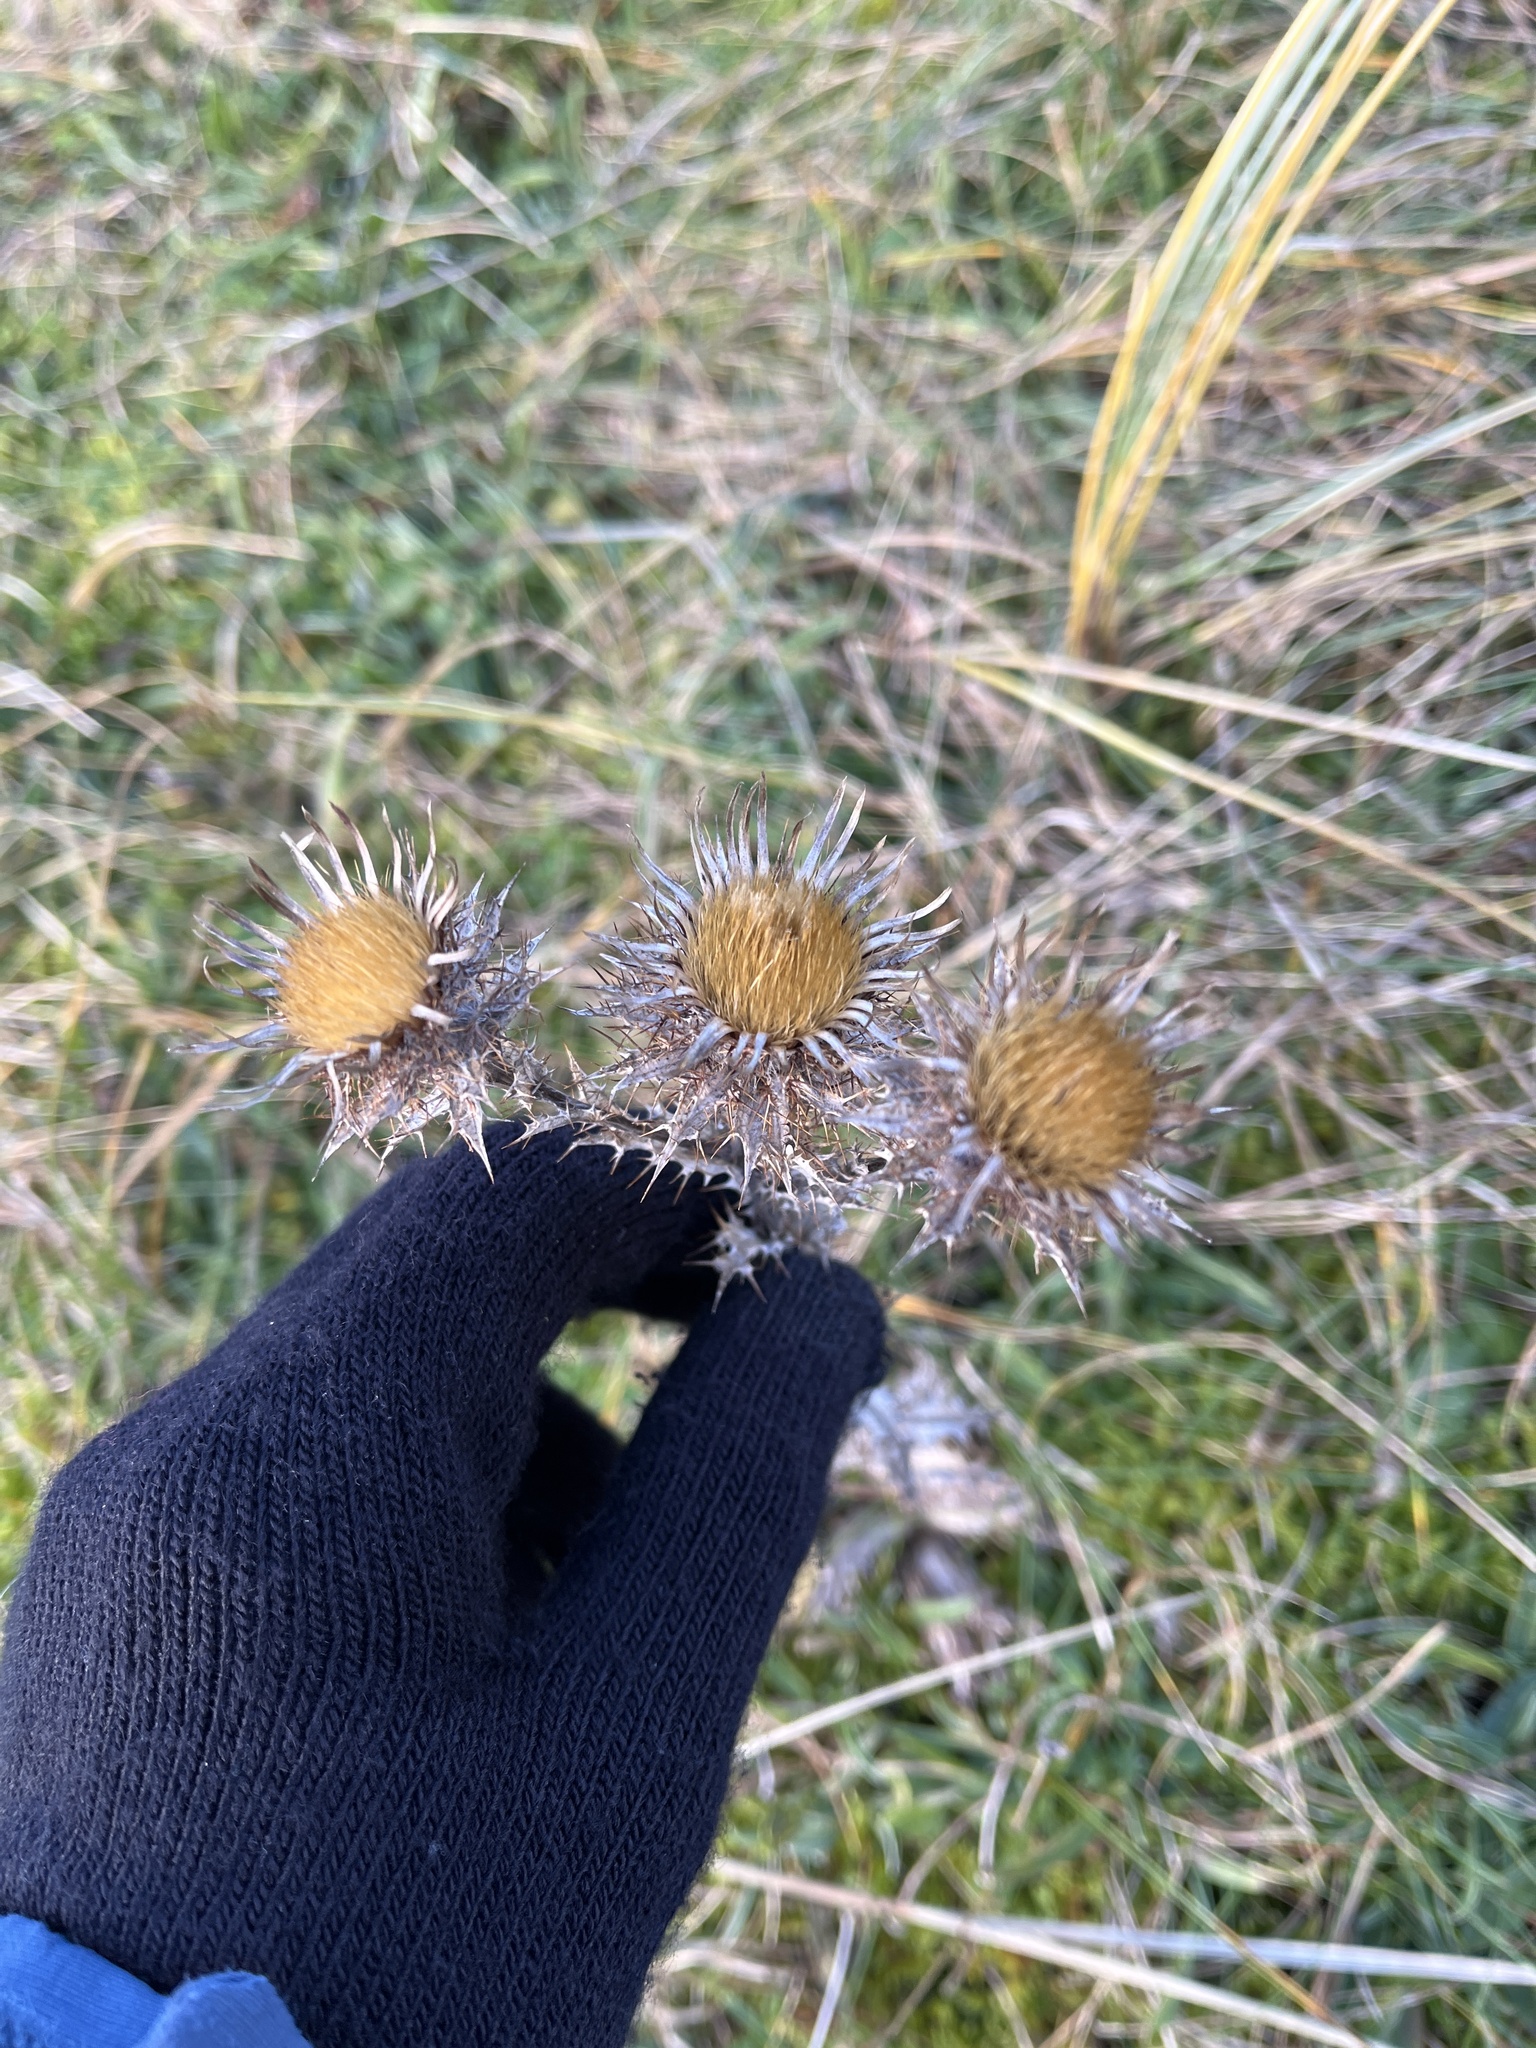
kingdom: Plantae
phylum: Tracheophyta
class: Magnoliopsida
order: Asterales
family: Asteraceae
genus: Carlina
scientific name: Carlina vulgaris
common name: Carline thistle
